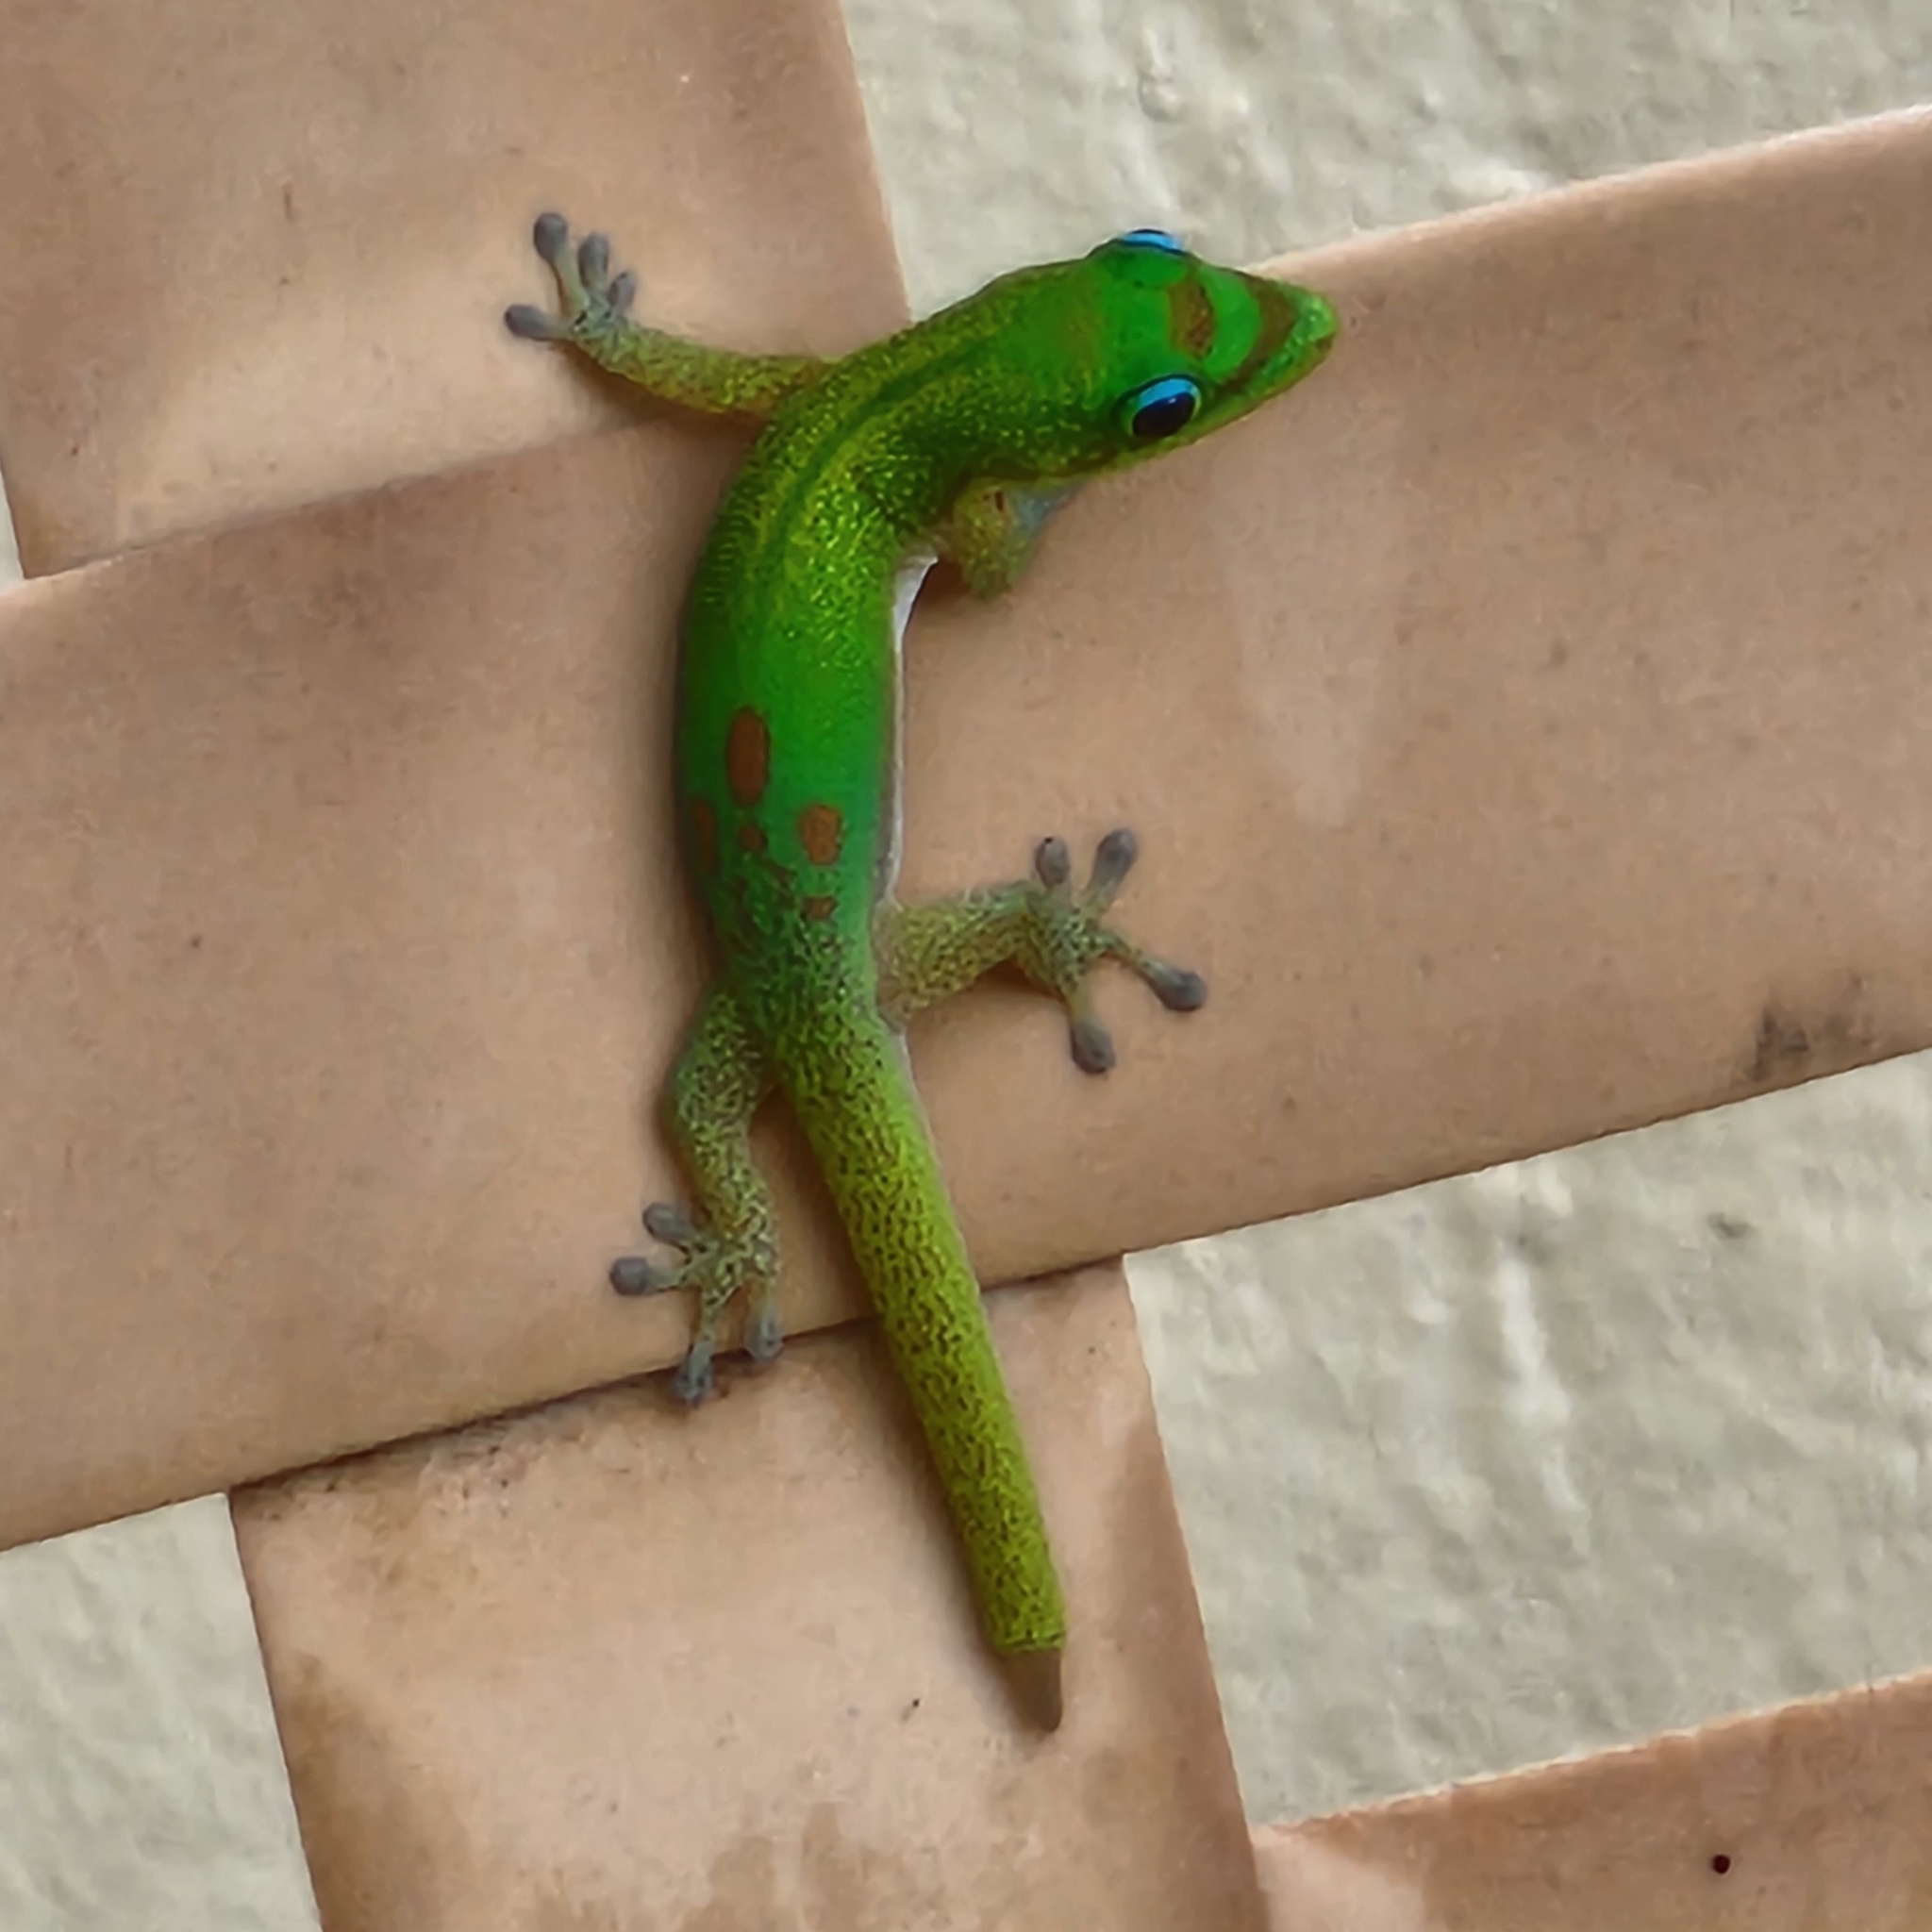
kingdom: Animalia
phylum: Chordata
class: Squamata
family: Gekkonidae
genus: Phelsuma
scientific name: Phelsuma laticauda
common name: Gold dust day gecko
